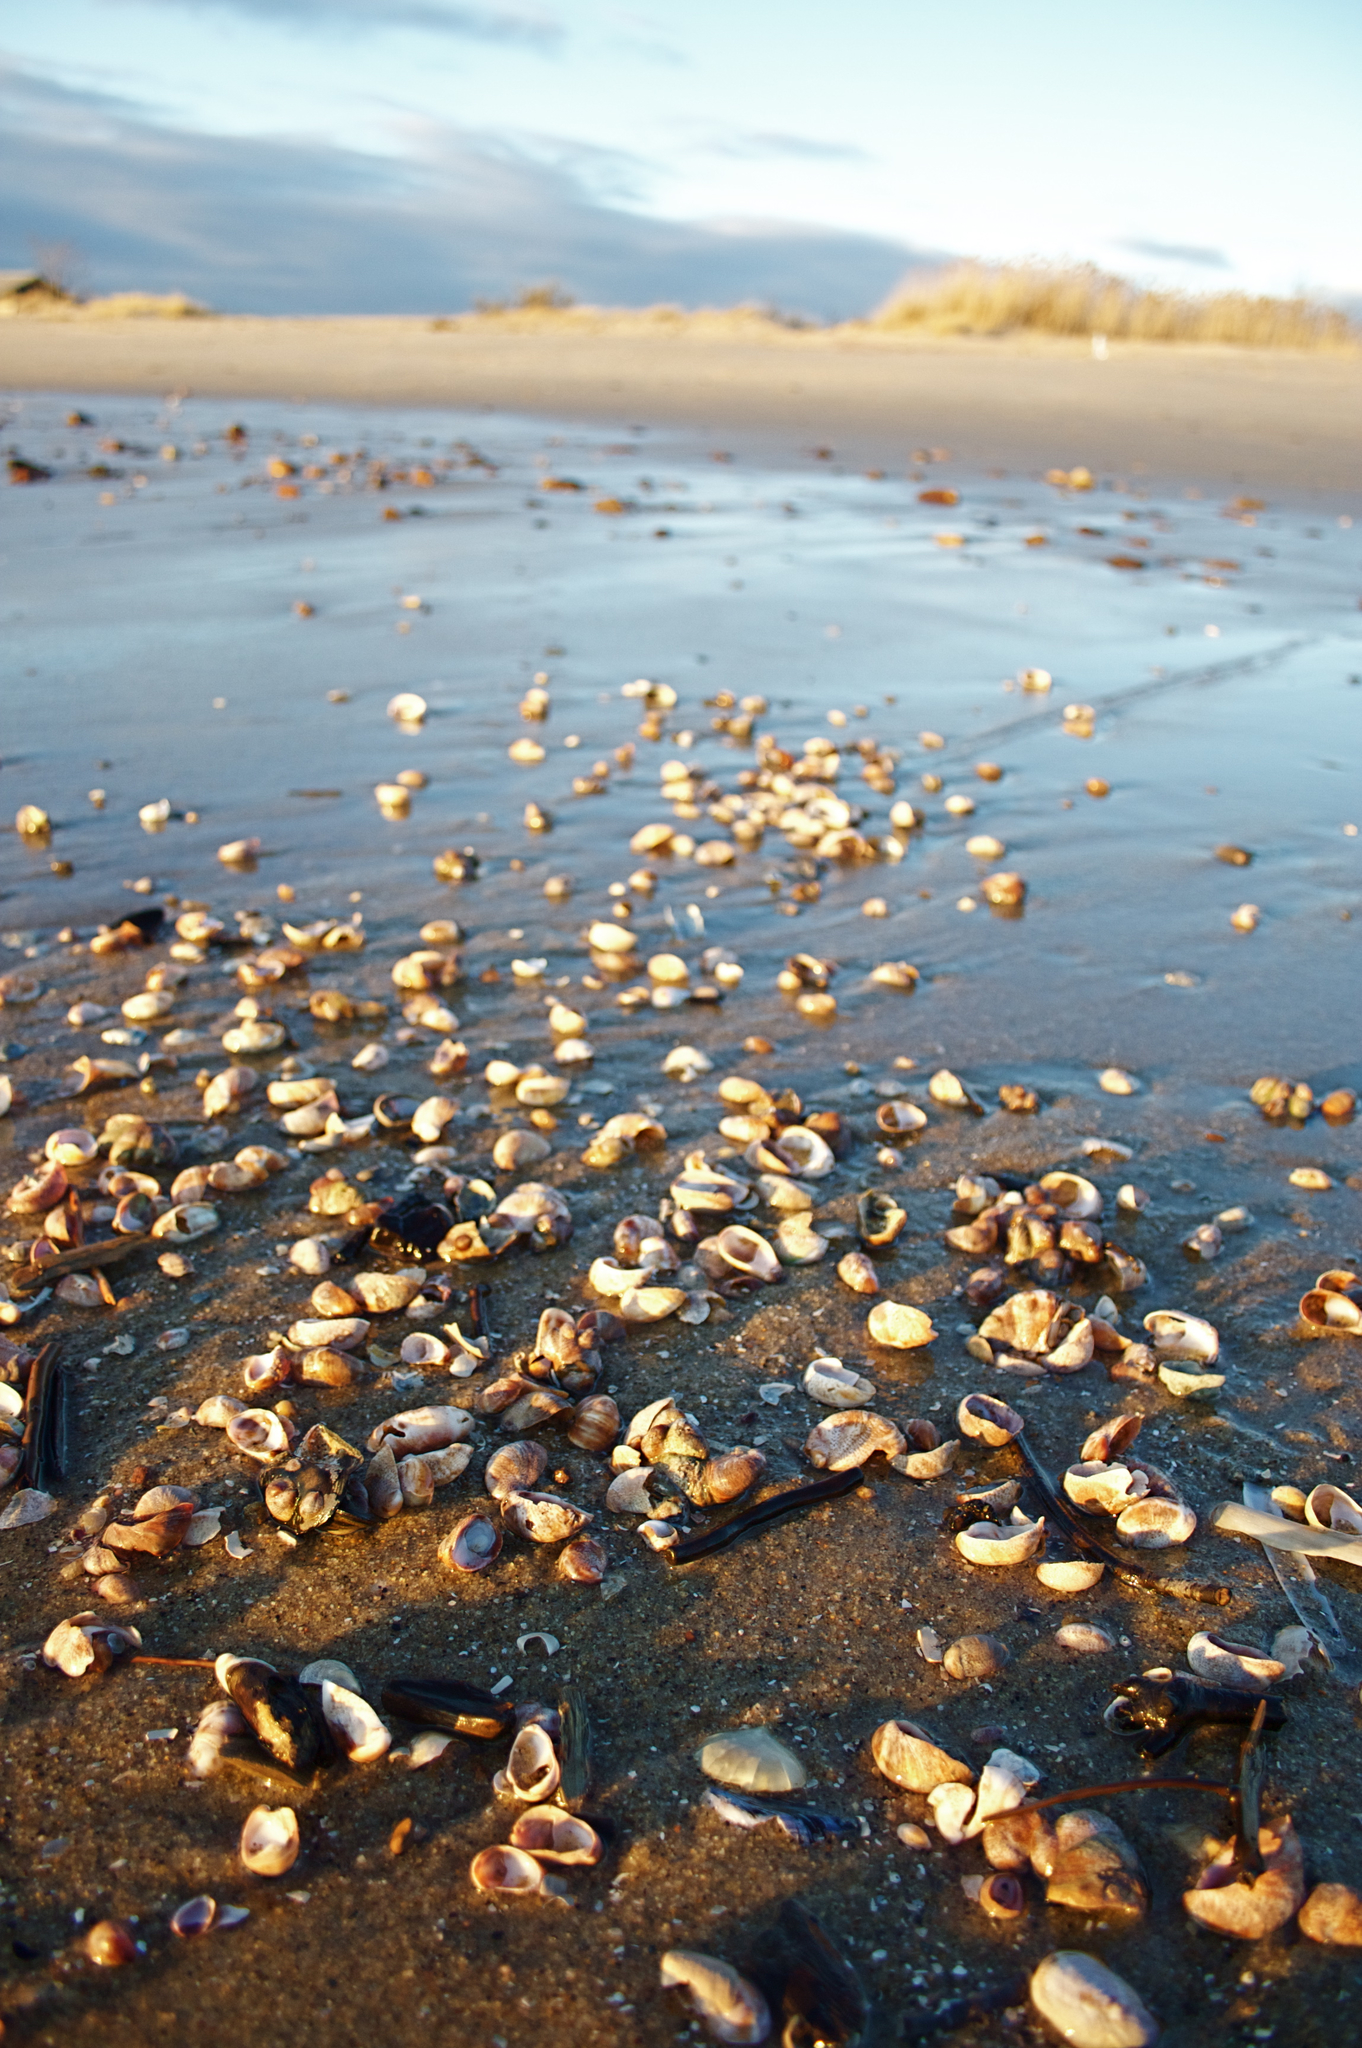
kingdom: Animalia
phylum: Mollusca
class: Gastropoda
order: Littorinimorpha
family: Calyptraeidae
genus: Crepidula
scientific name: Crepidula fornicata
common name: Slipper limpet
